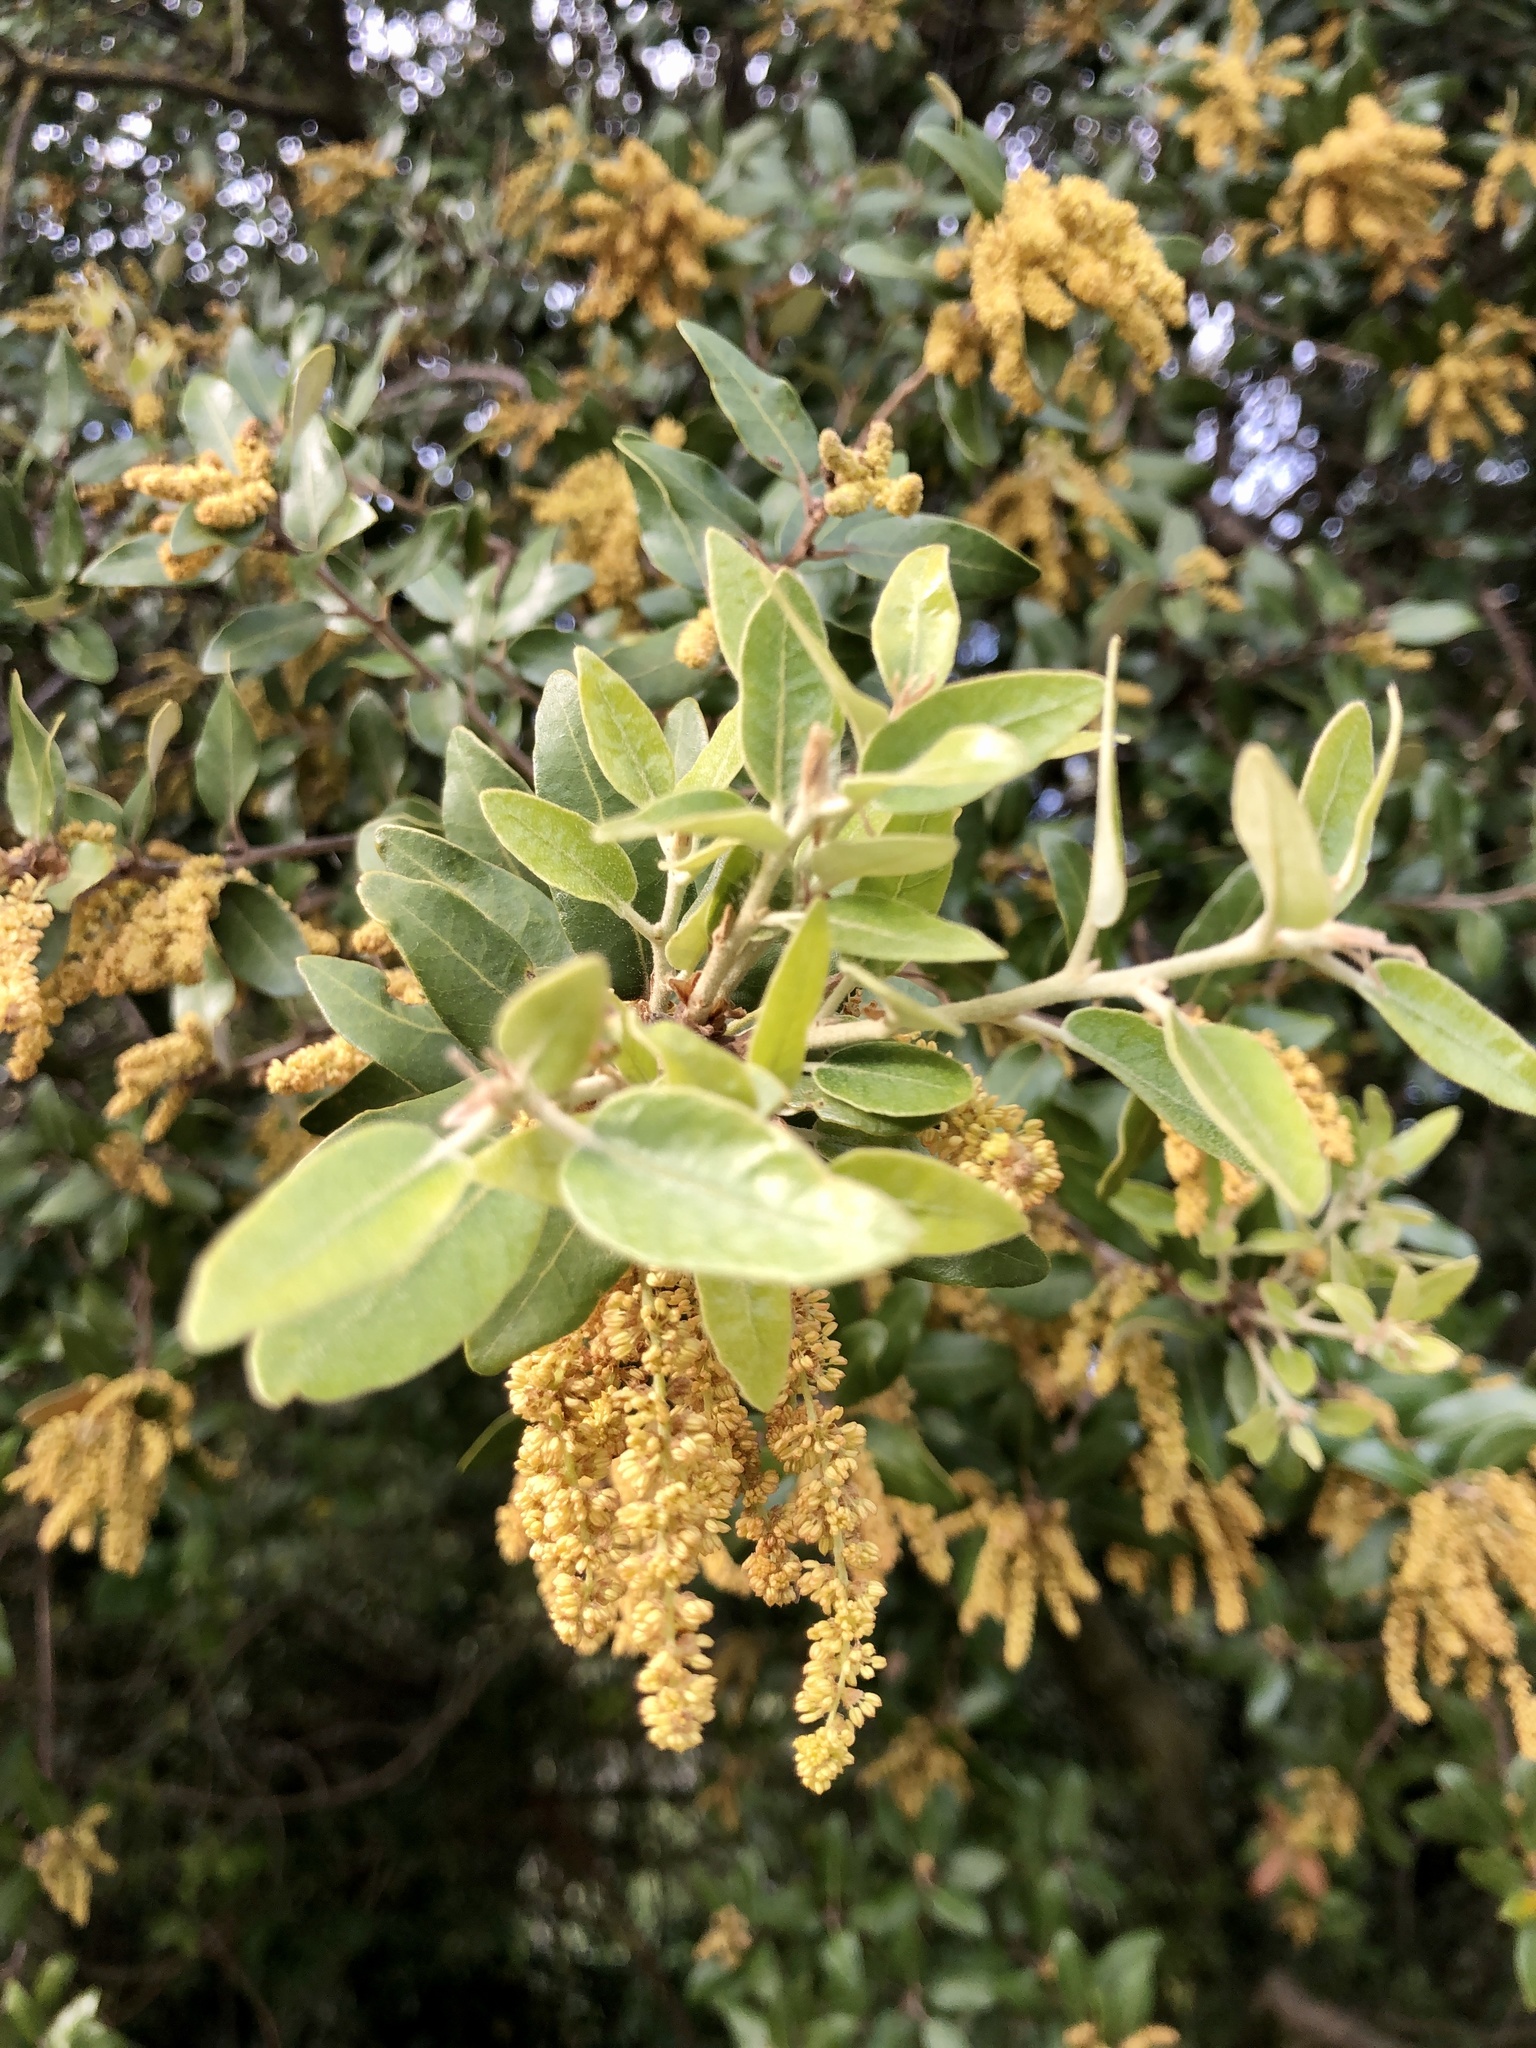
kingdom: Plantae
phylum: Tracheophyta
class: Magnoliopsida
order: Fagales
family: Fagaceae
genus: Quercus
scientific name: Quercus ilex
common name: Evergreen oak
